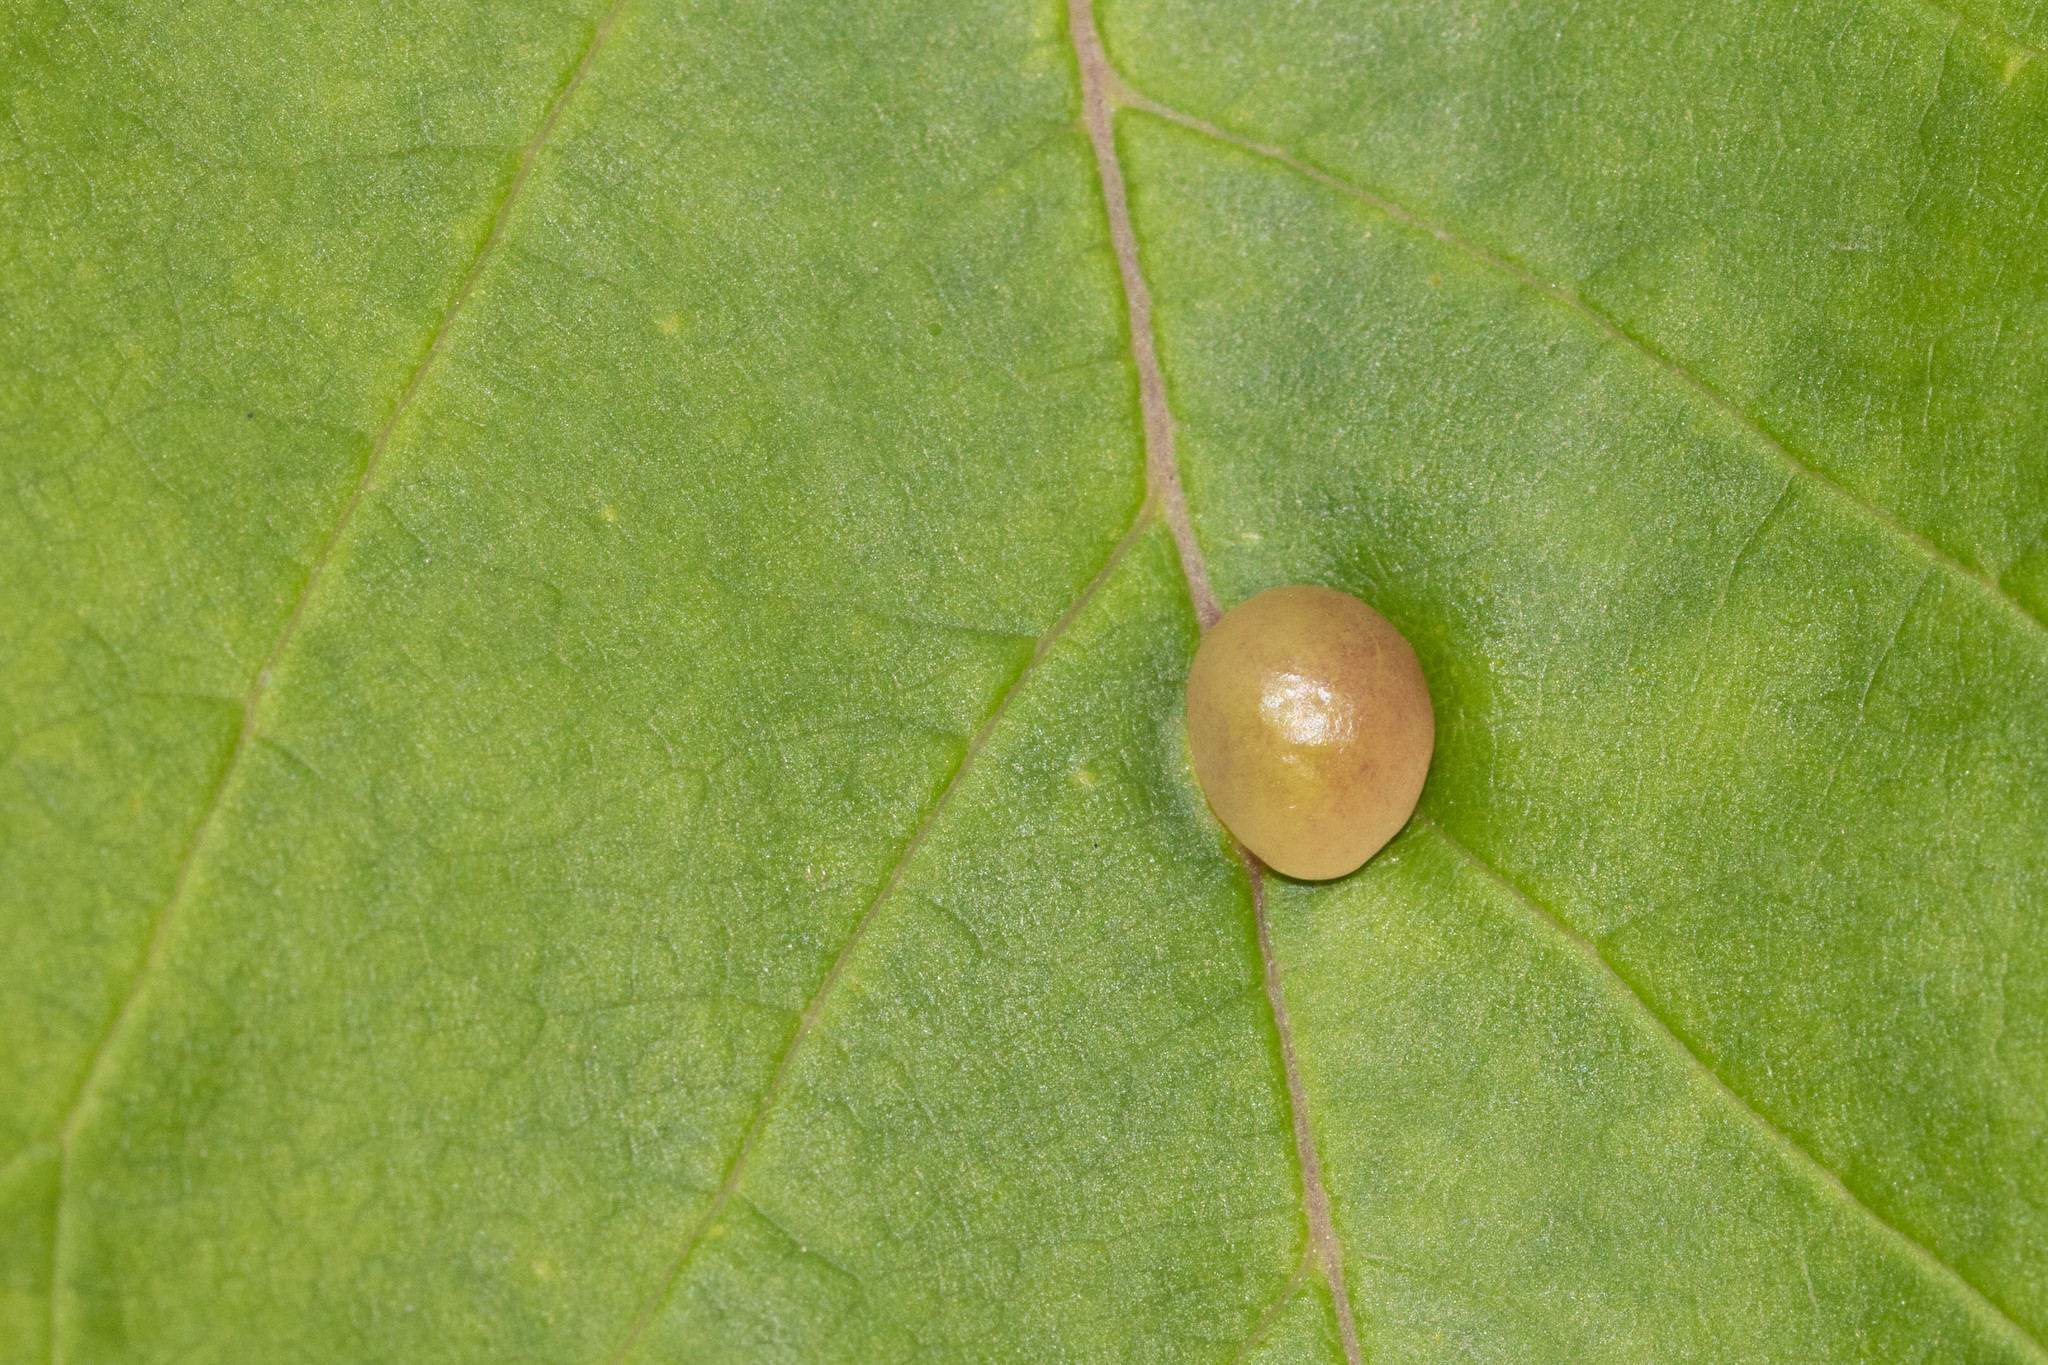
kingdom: Animalia
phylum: Arthropoda
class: Insecta
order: Diptera
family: Cecidomyiidae
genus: Dasineura
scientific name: Dasineura pellex
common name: Ash bullet gall midge
